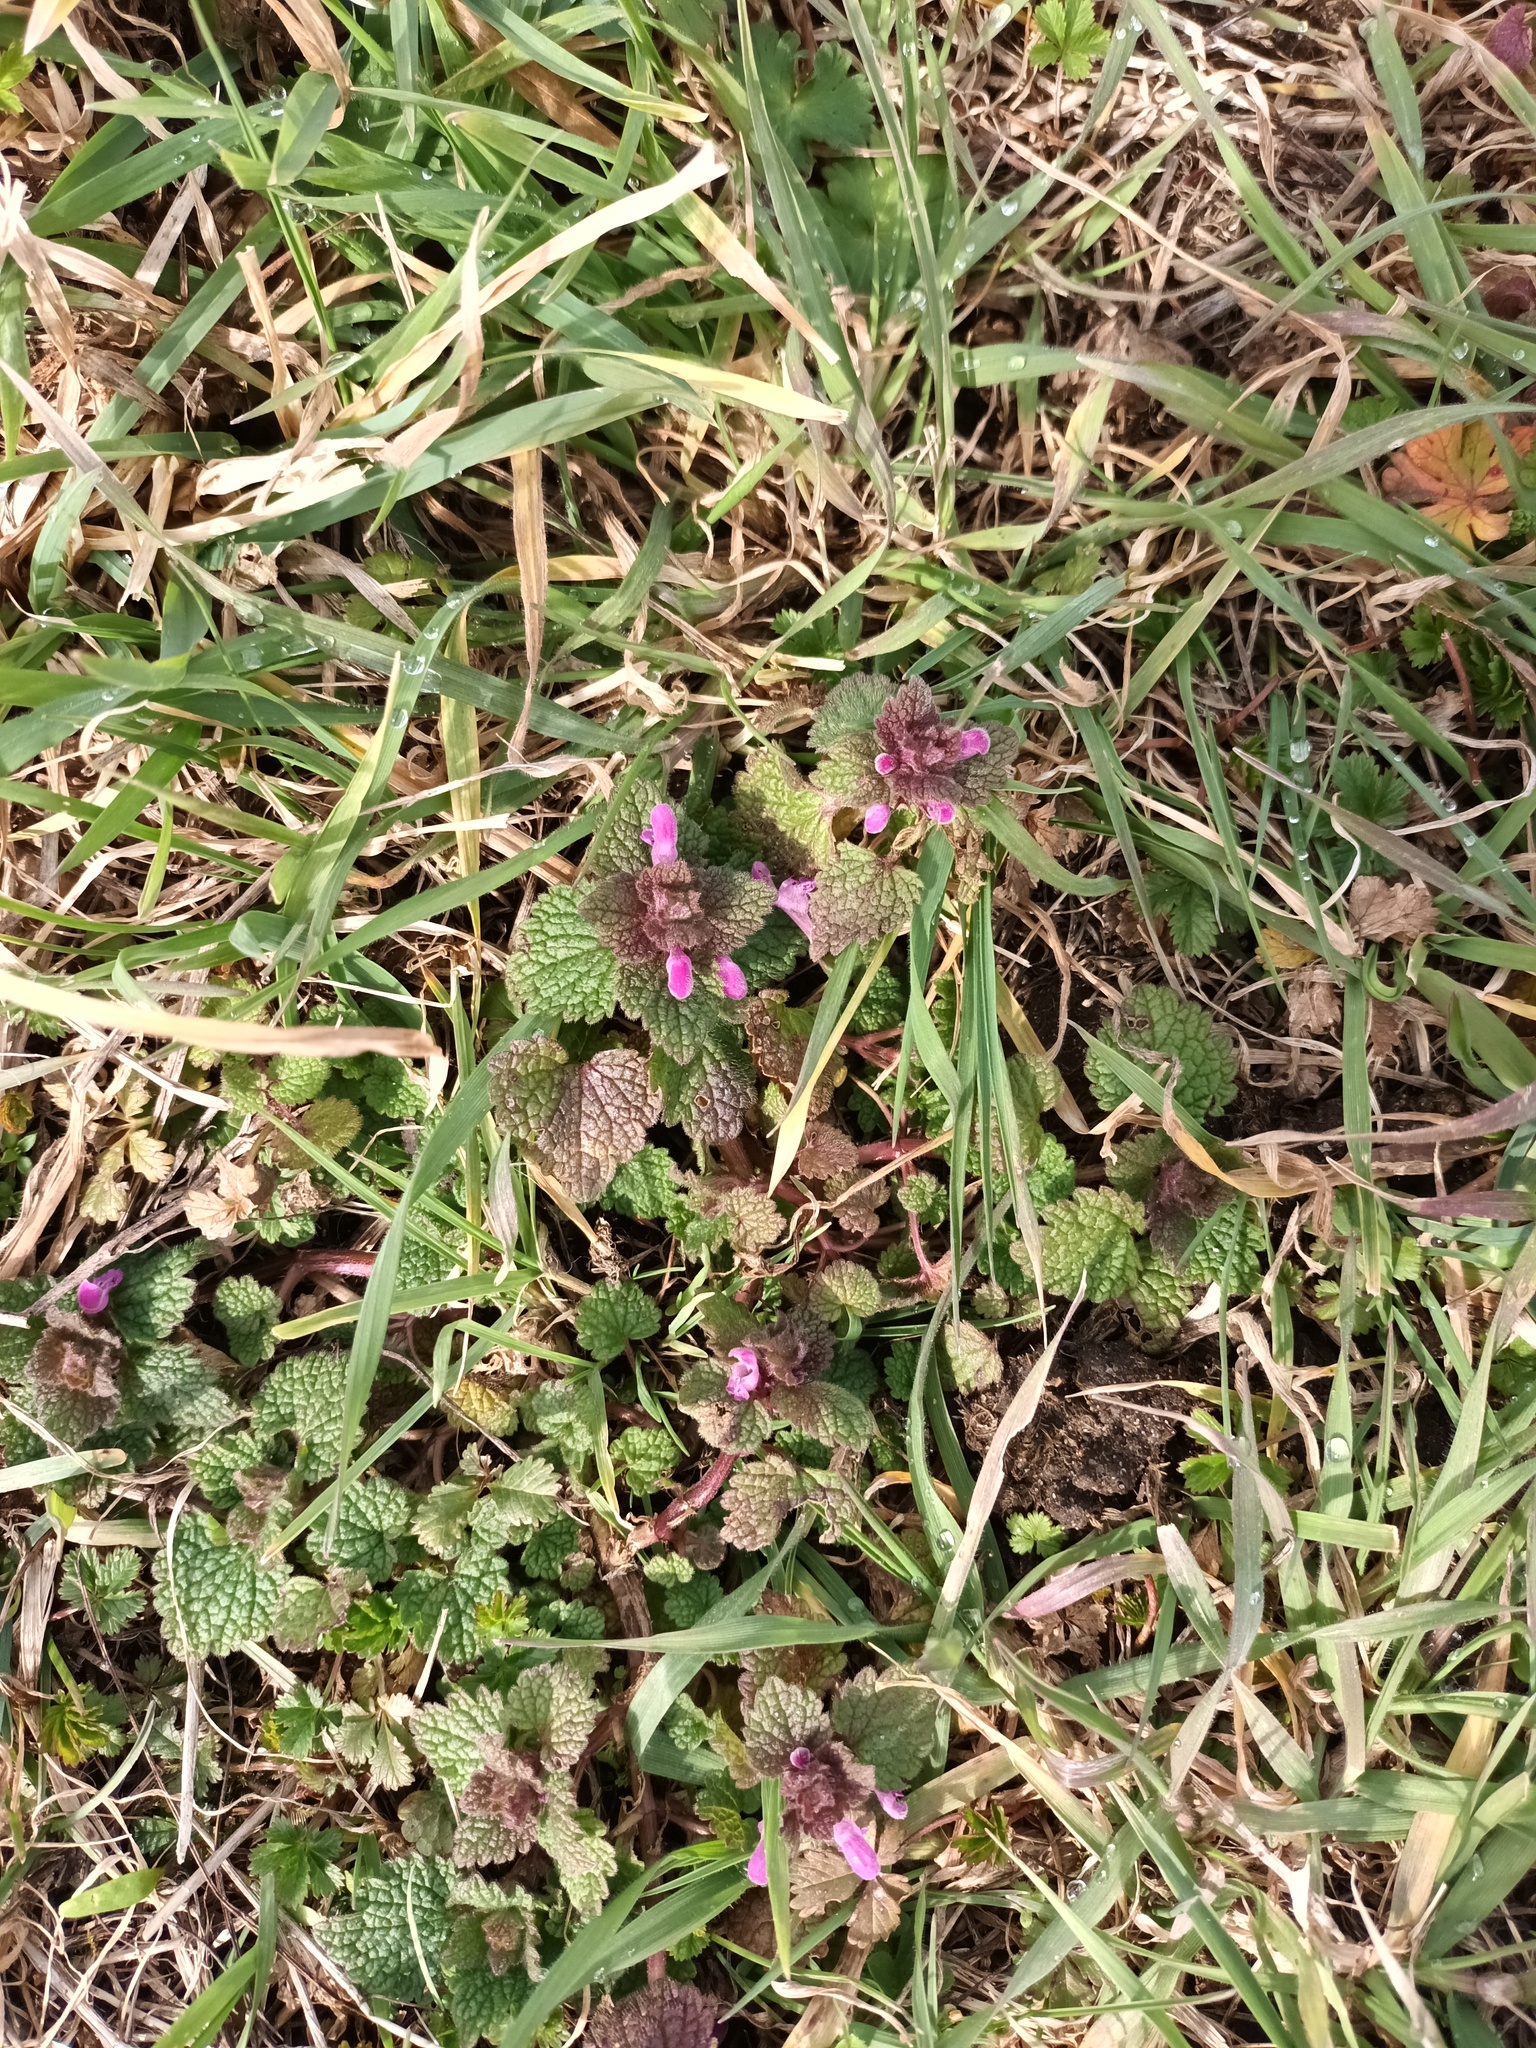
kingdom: Plantae
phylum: Tracheophyta
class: Magnoliopsida
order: Lamiales
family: Lamiaceae
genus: Lamium
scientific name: Lamium purpureum
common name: Red dead-nettle
